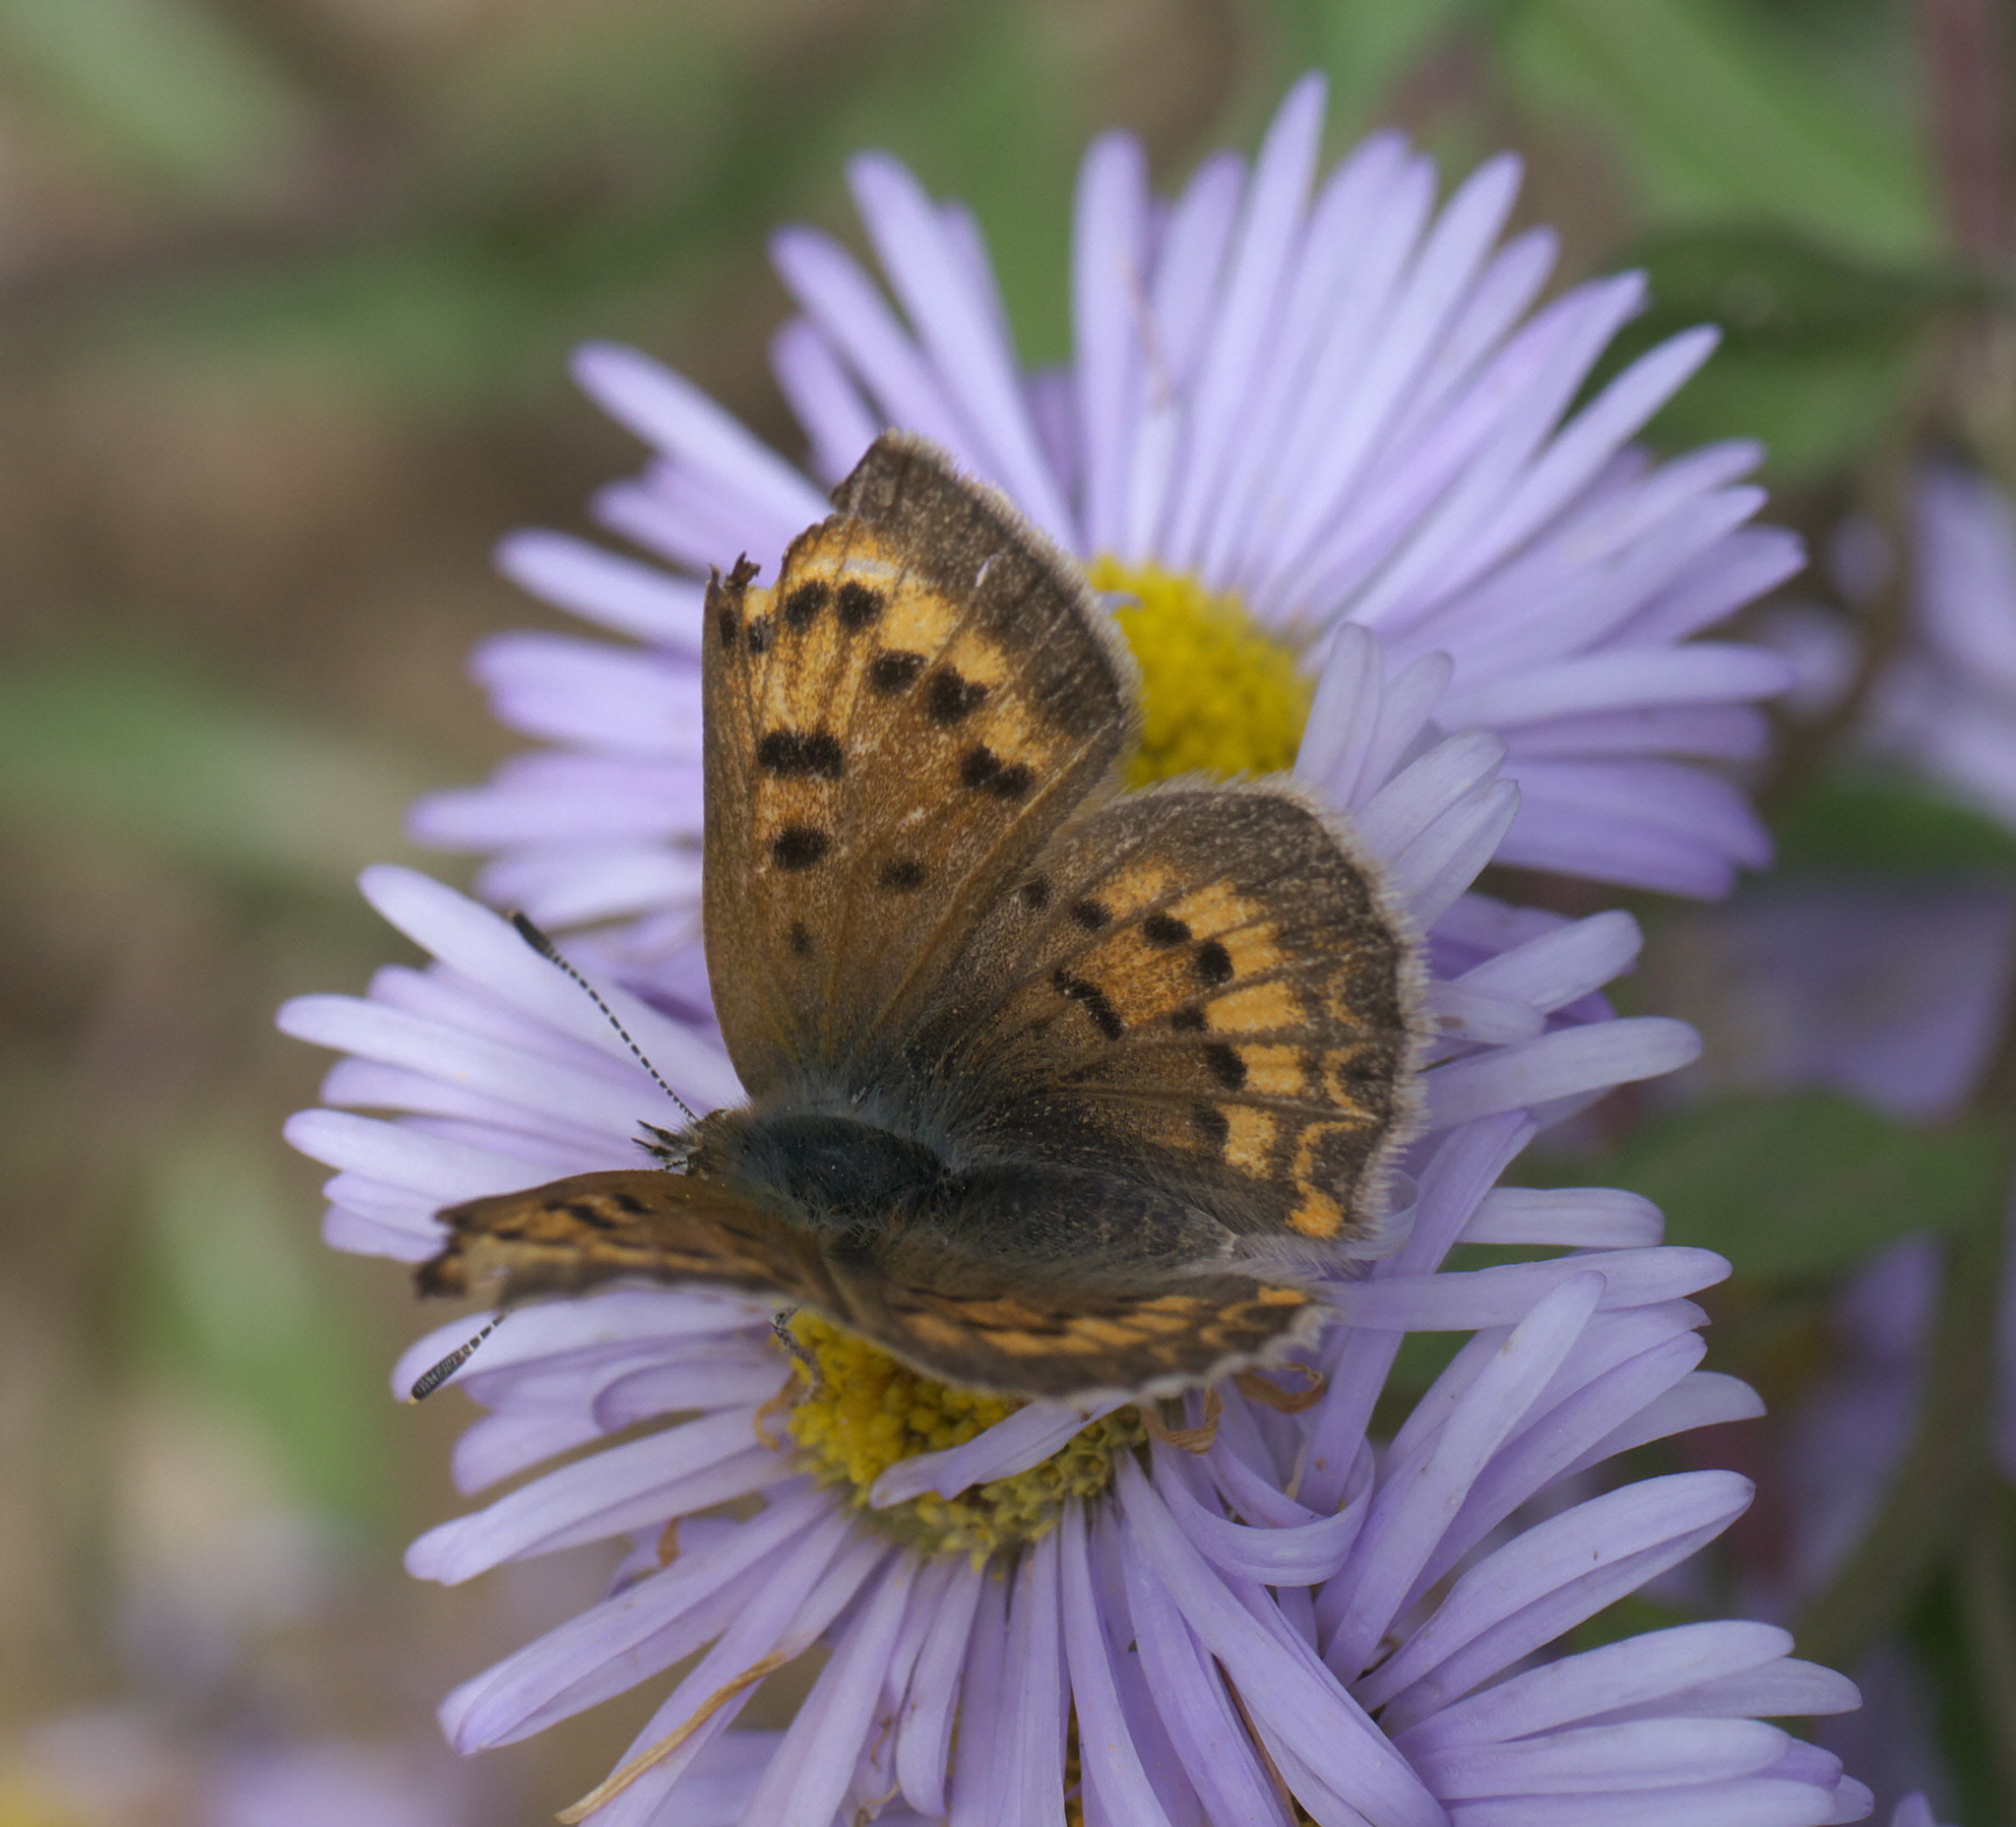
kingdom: Animalia
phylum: Arthropoda
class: Insecta
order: Lepidoptera
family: Lycaenidae
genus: Tharsalea
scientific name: Tharsalea dorcas
